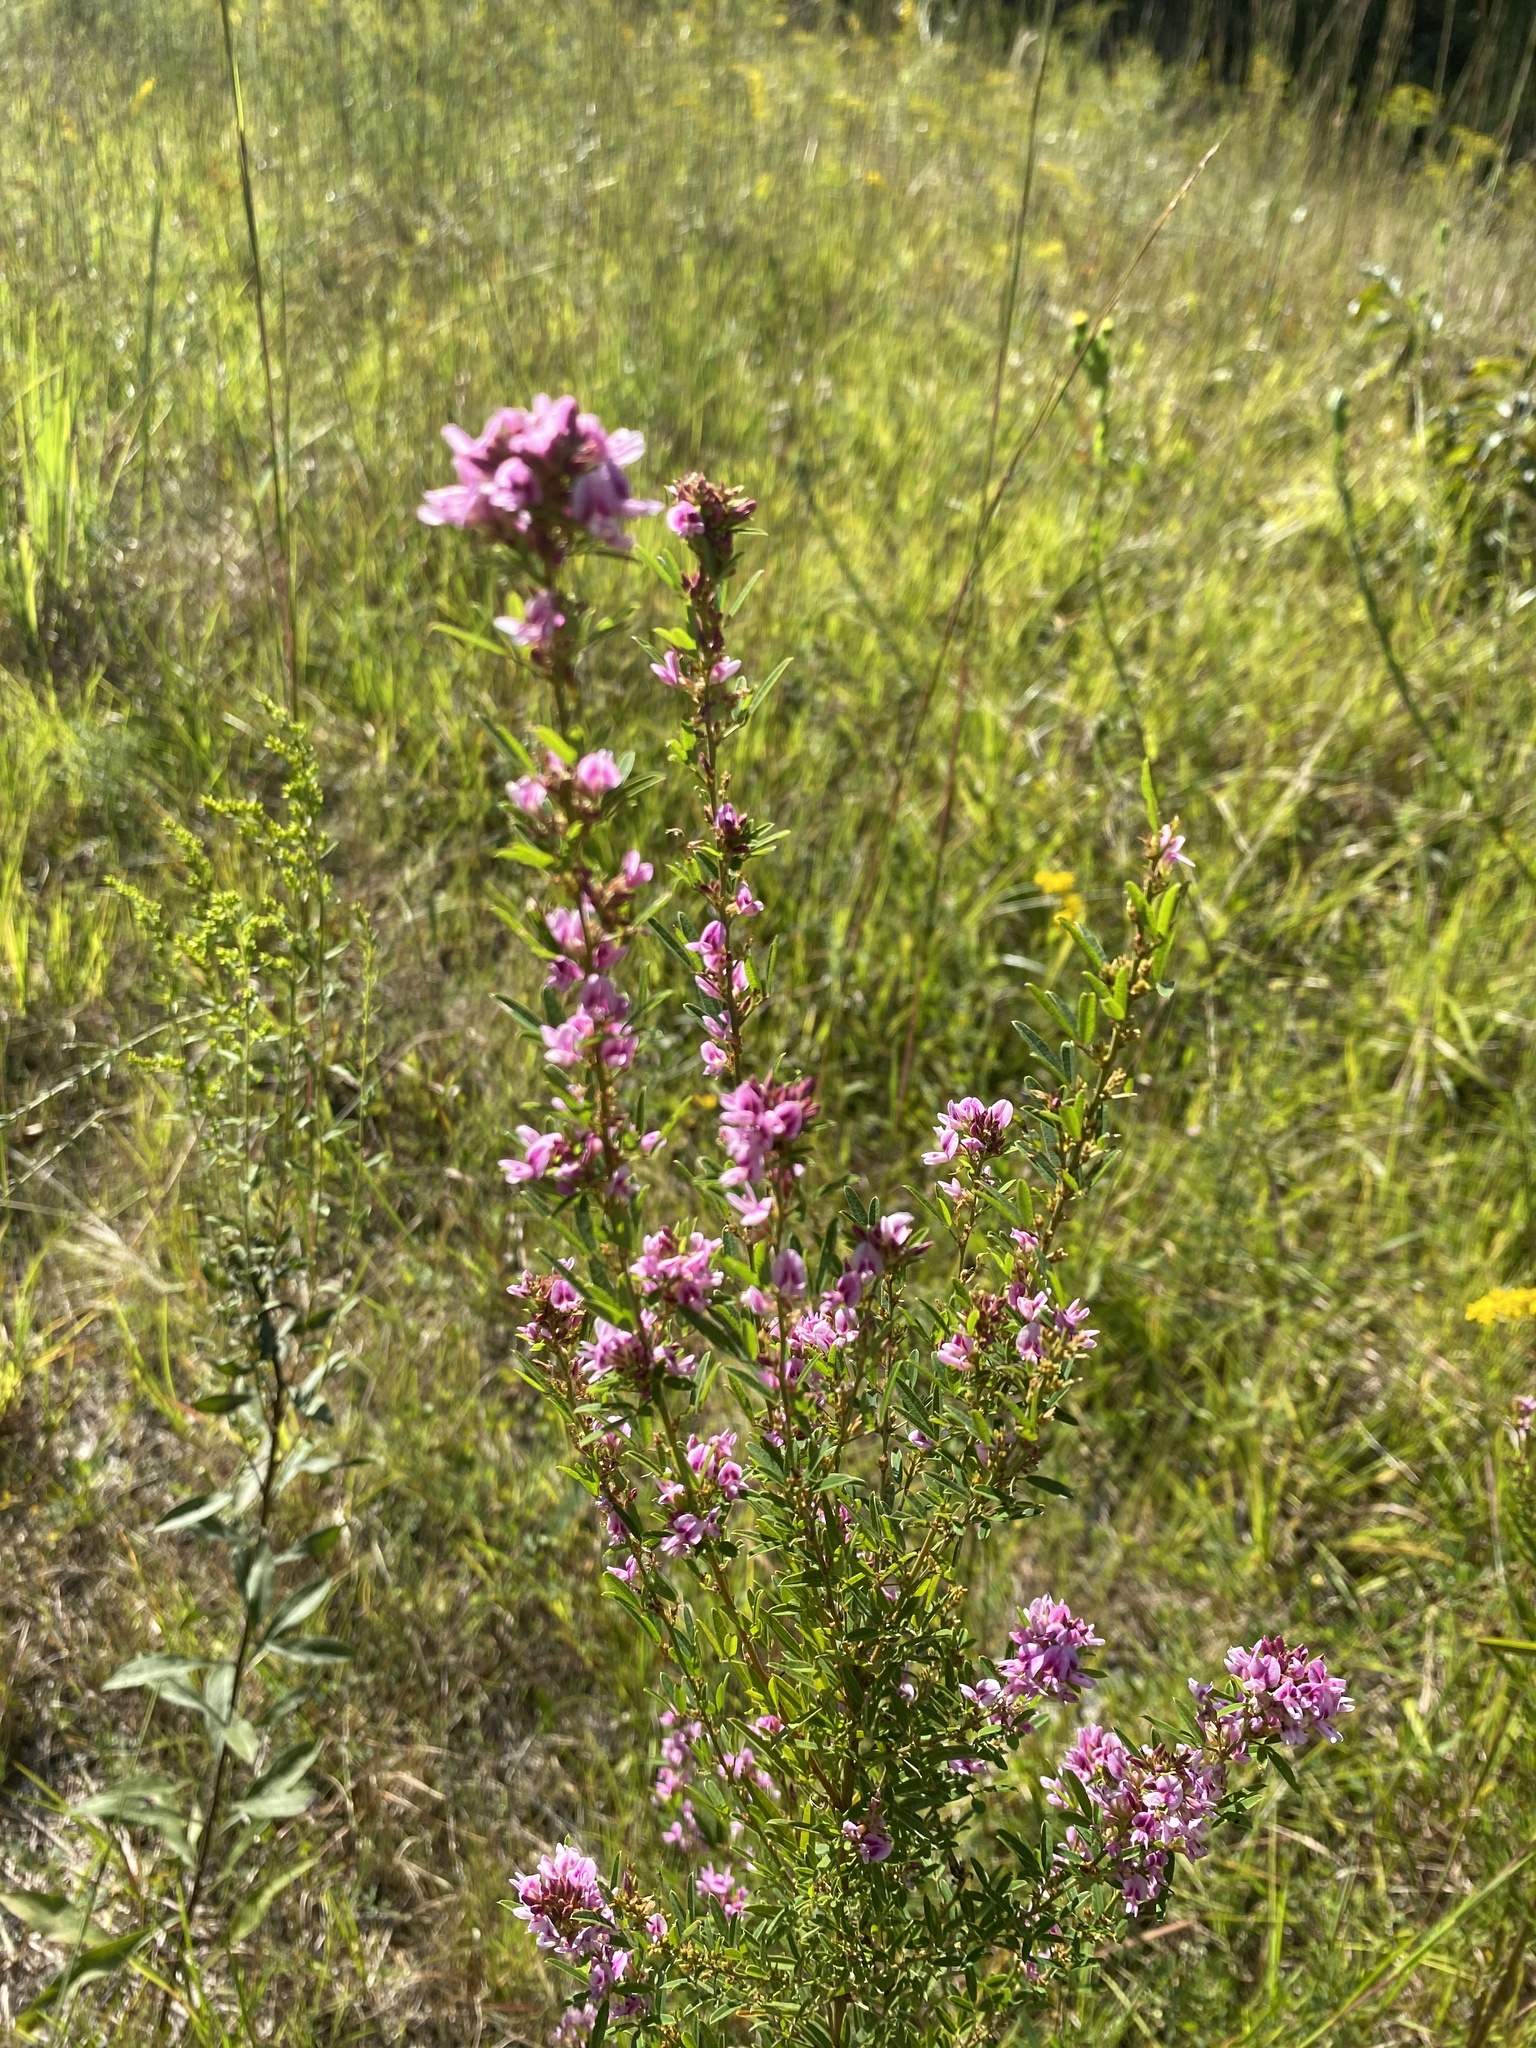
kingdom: Plantae
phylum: Tracheophyta
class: Magnoliopsida
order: Fabales
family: Fabaceae
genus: Lespedeza
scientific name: Lespedeza virginica
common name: Slender bush-clover
